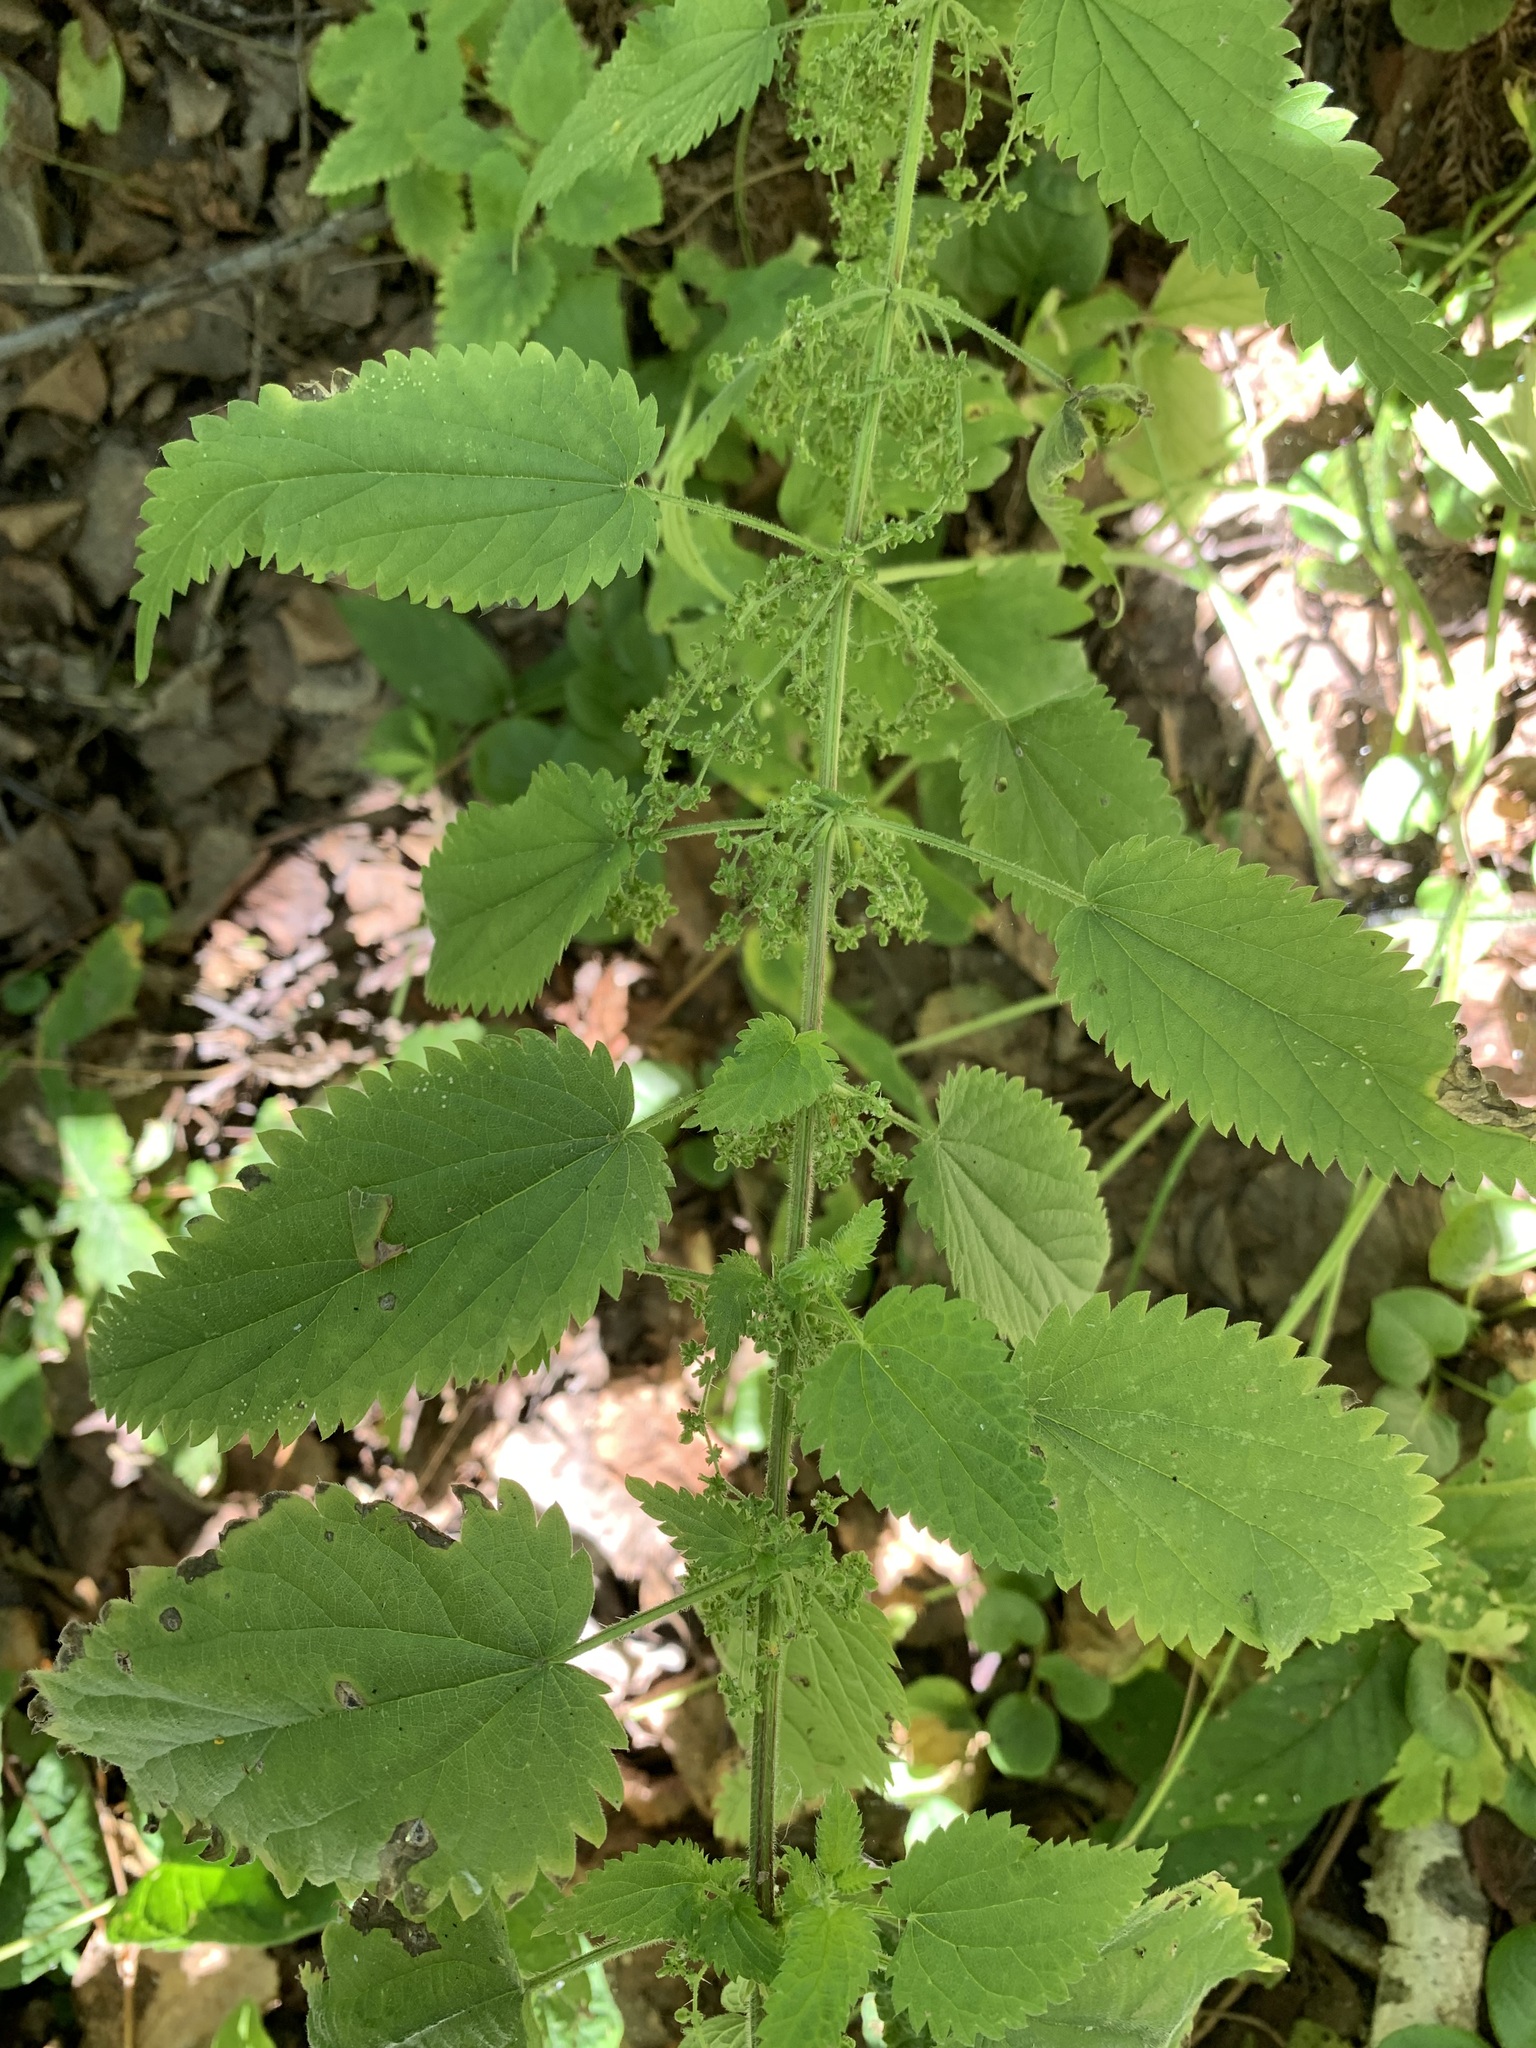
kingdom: Plantae
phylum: Tracheophyta
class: Magnoliopsida
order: Rosales
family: Urticaceae
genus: Urtica
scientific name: Urtica galeopsifolia
